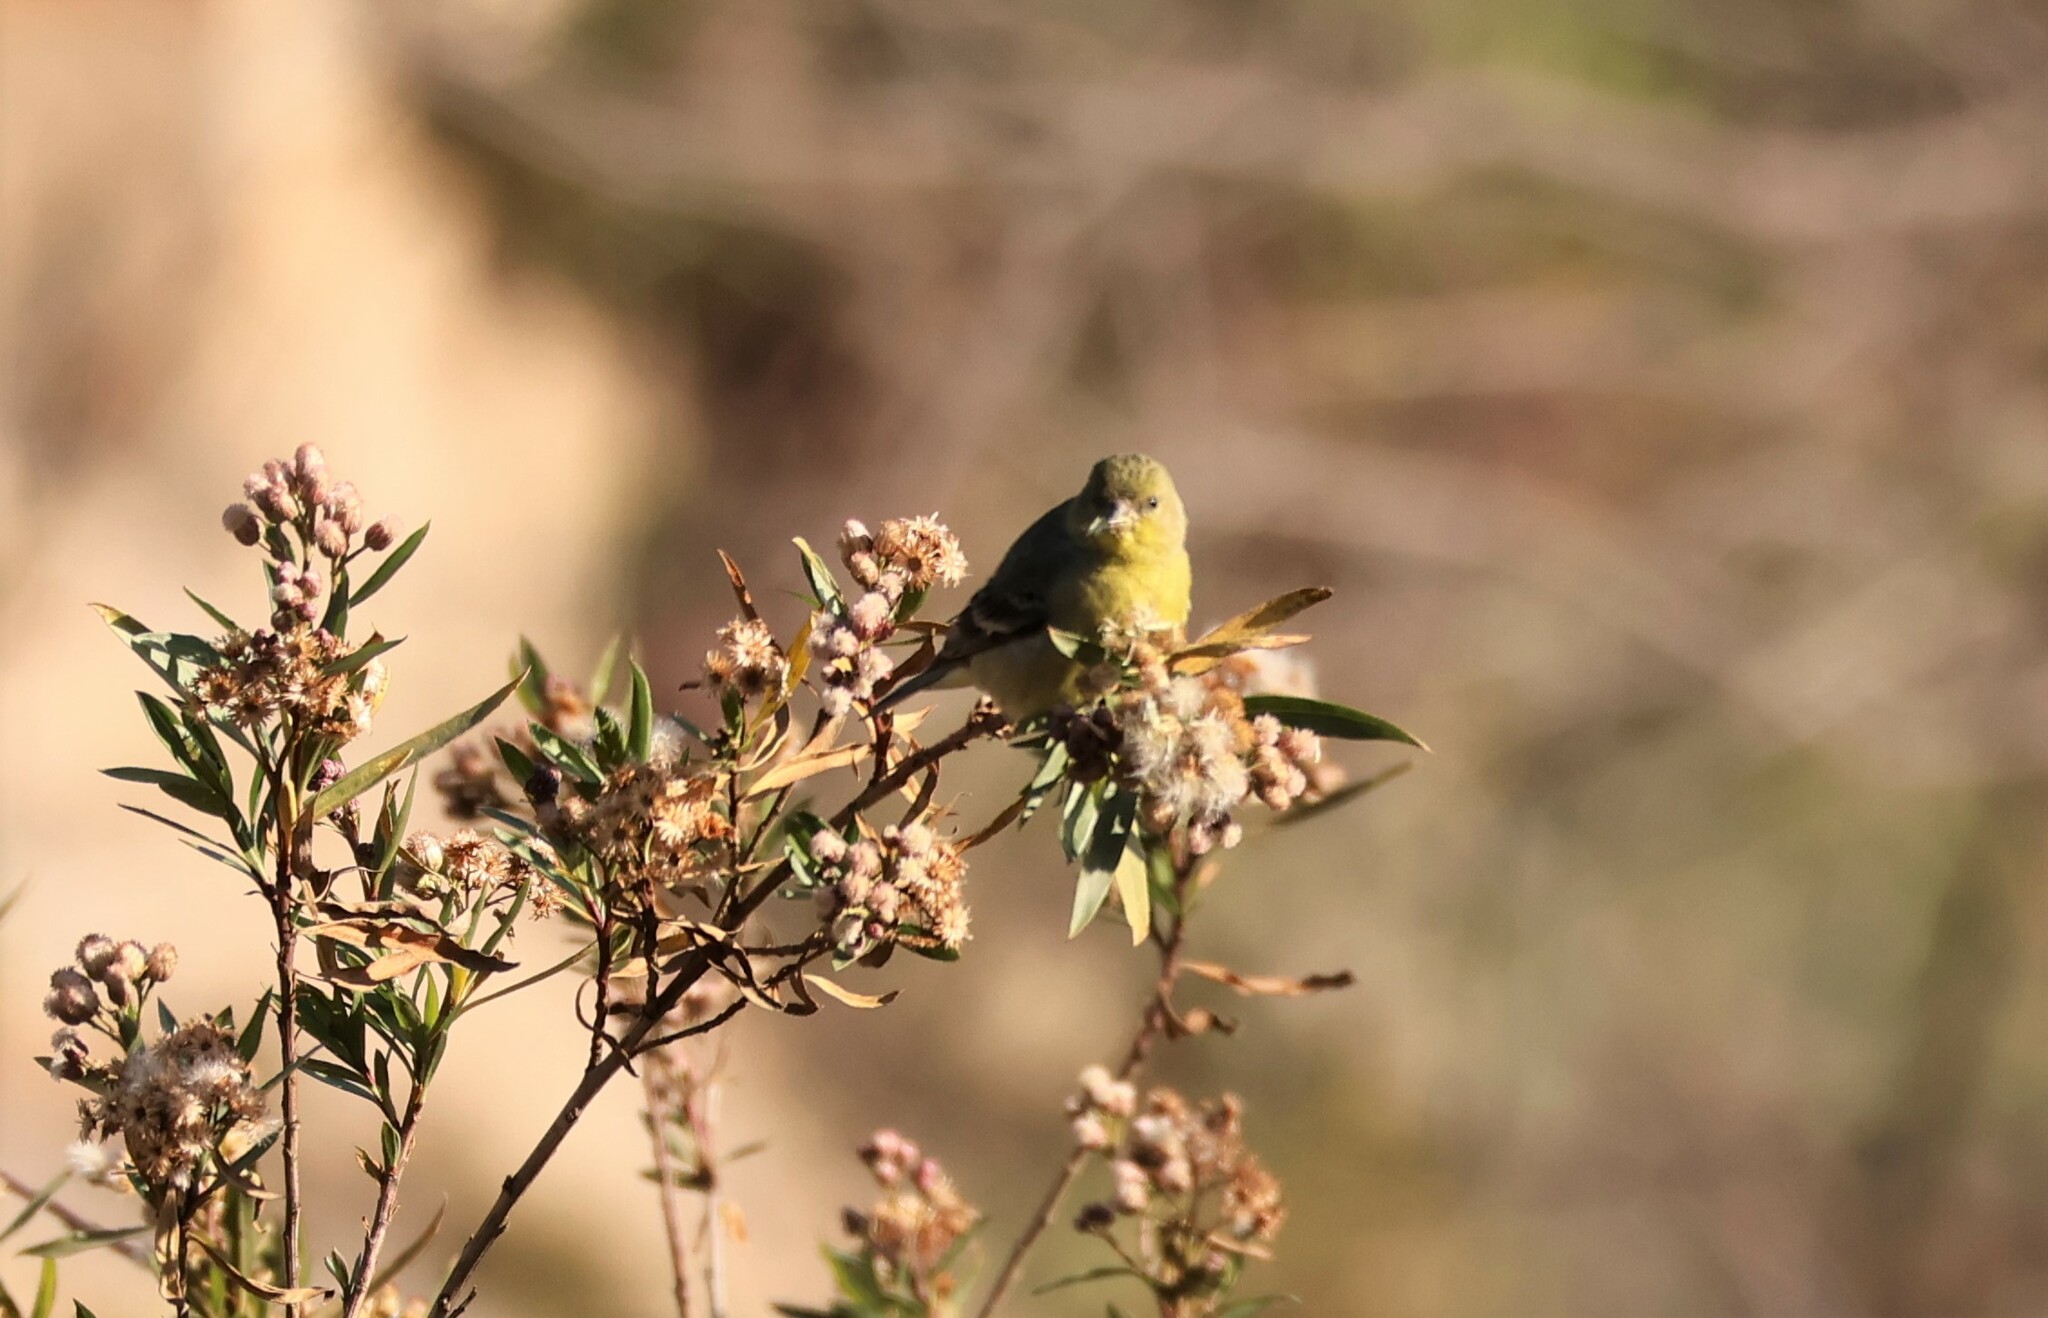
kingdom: Animalia
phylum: Chordata
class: Aves
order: Passeriformes
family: Fringillidae
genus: Spinus
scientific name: Spinus psaltria
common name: Lesser goldfinch
